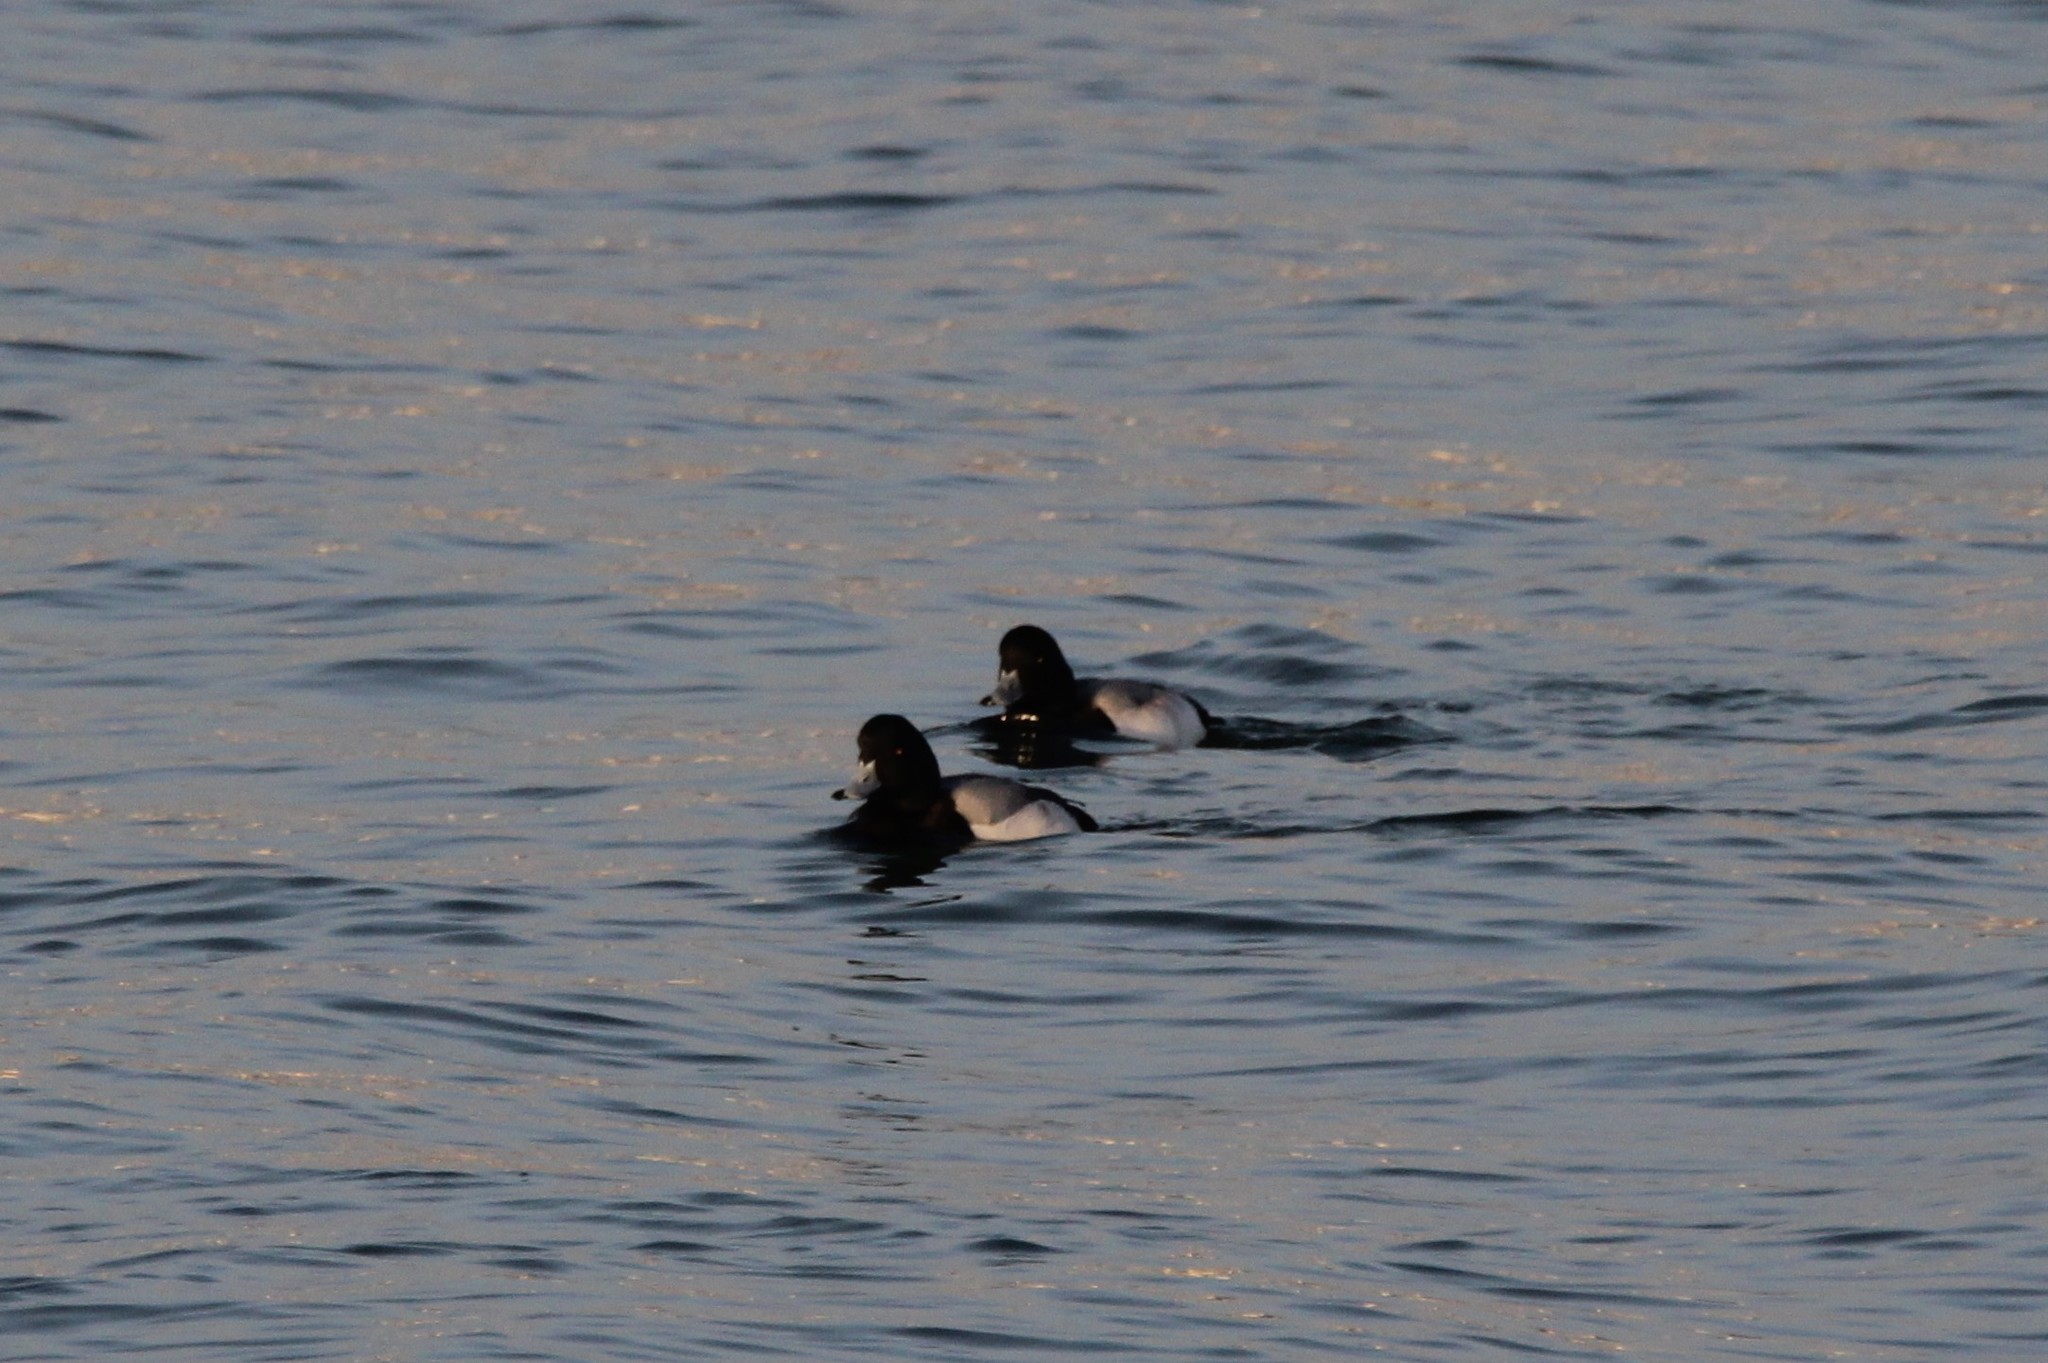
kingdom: Animalia
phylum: Chordata
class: Aves
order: Anseriformes
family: Anatidae
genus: Aythya
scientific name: Aythya affinis
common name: Lesser scaup
